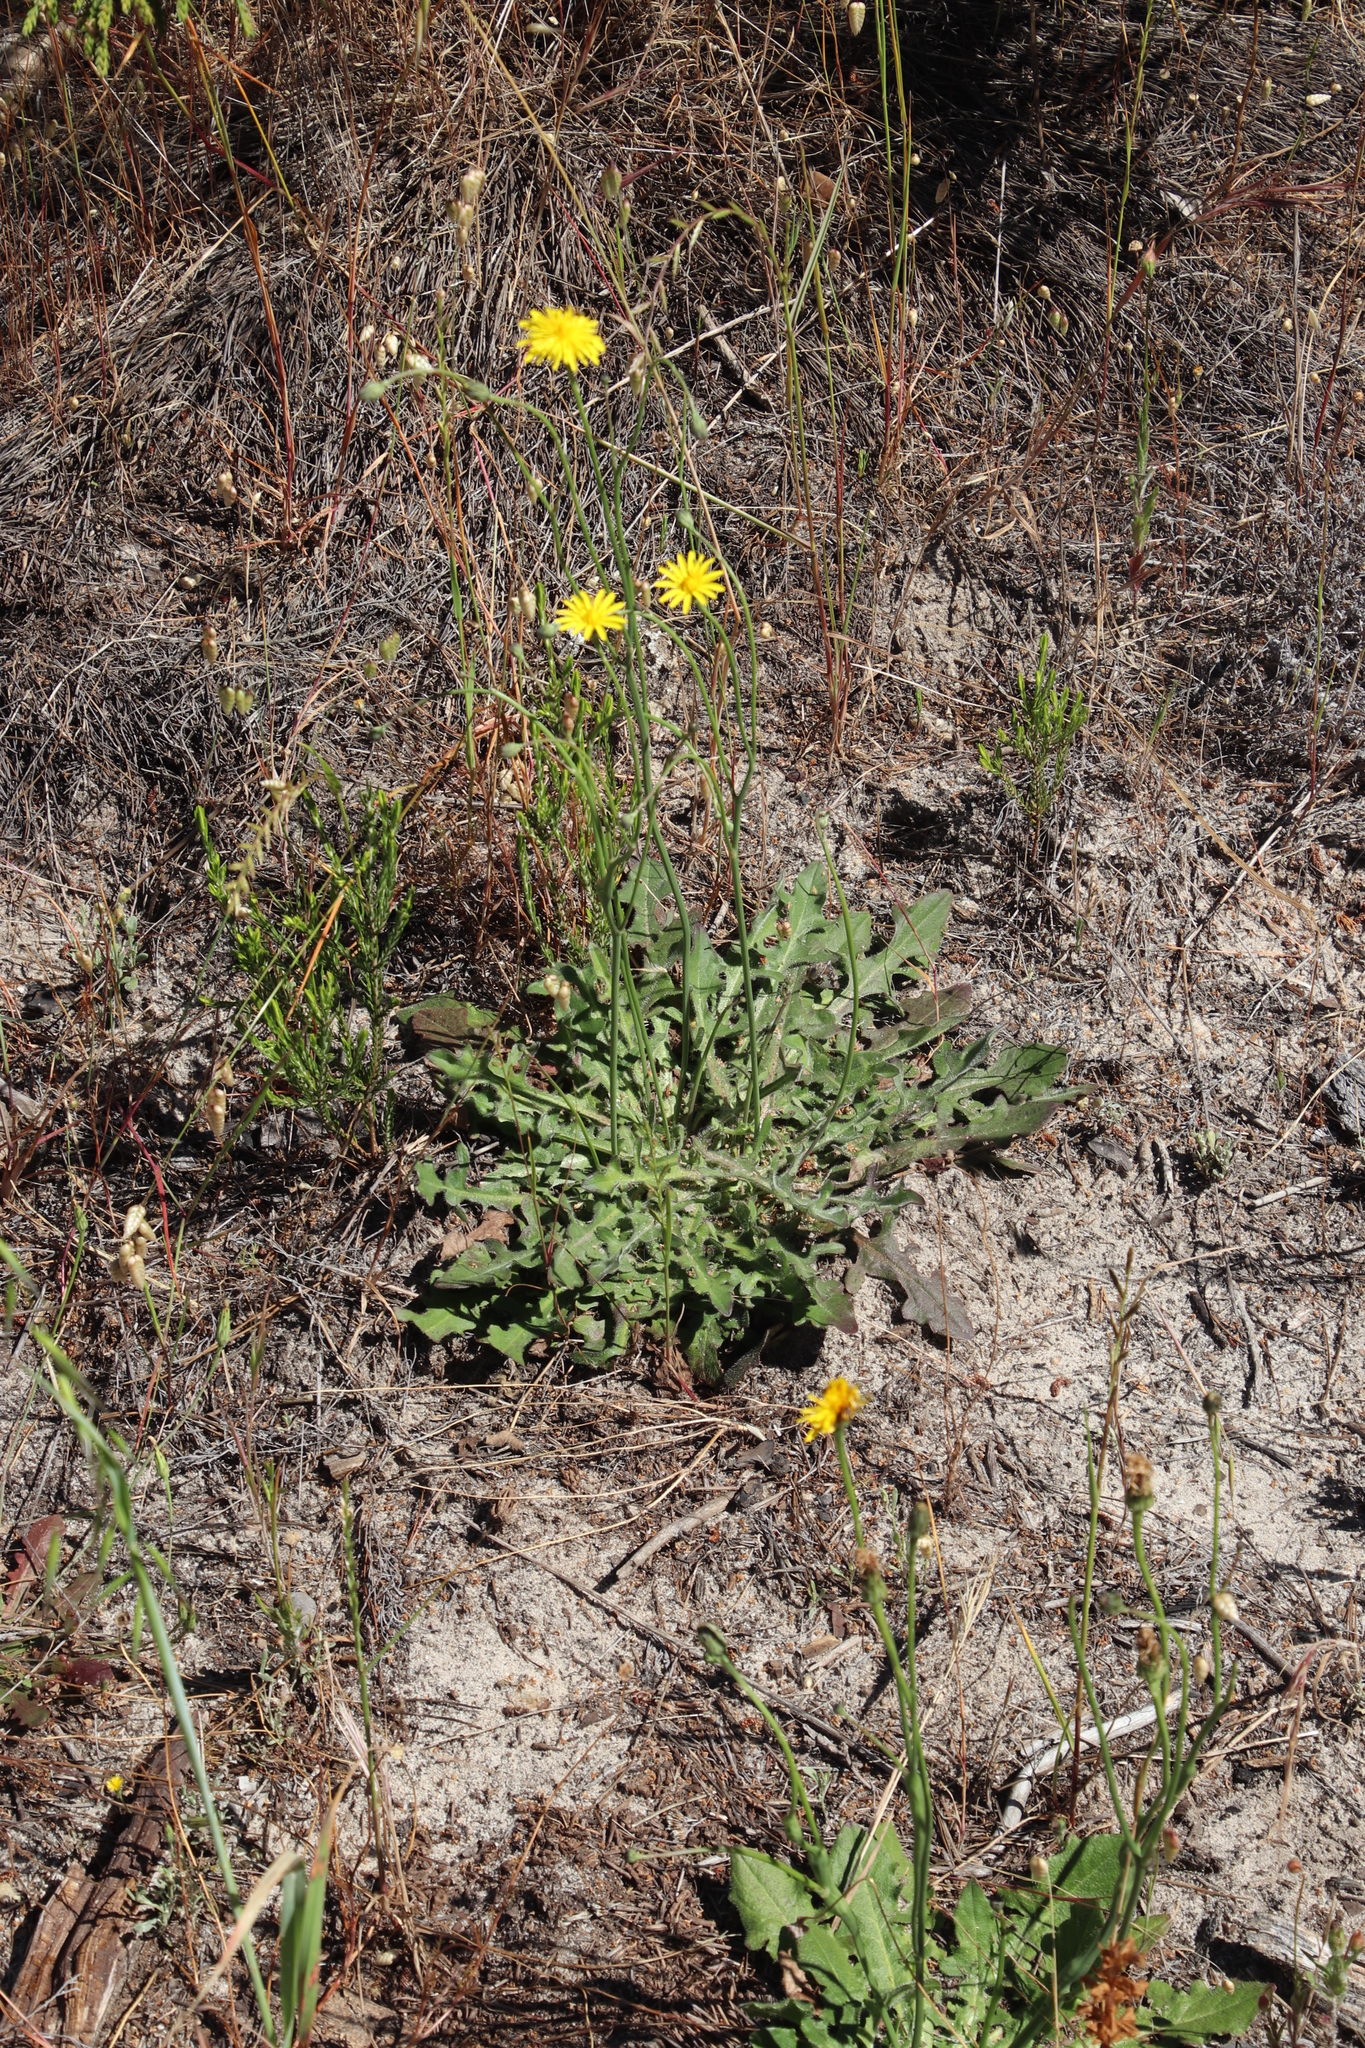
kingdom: Plantae
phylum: Tracheophyta
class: Magnoliopsida
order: Asterales
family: Asteraceae
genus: Hypochaeris
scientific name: Hypochaeris radicata
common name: Flatweed
